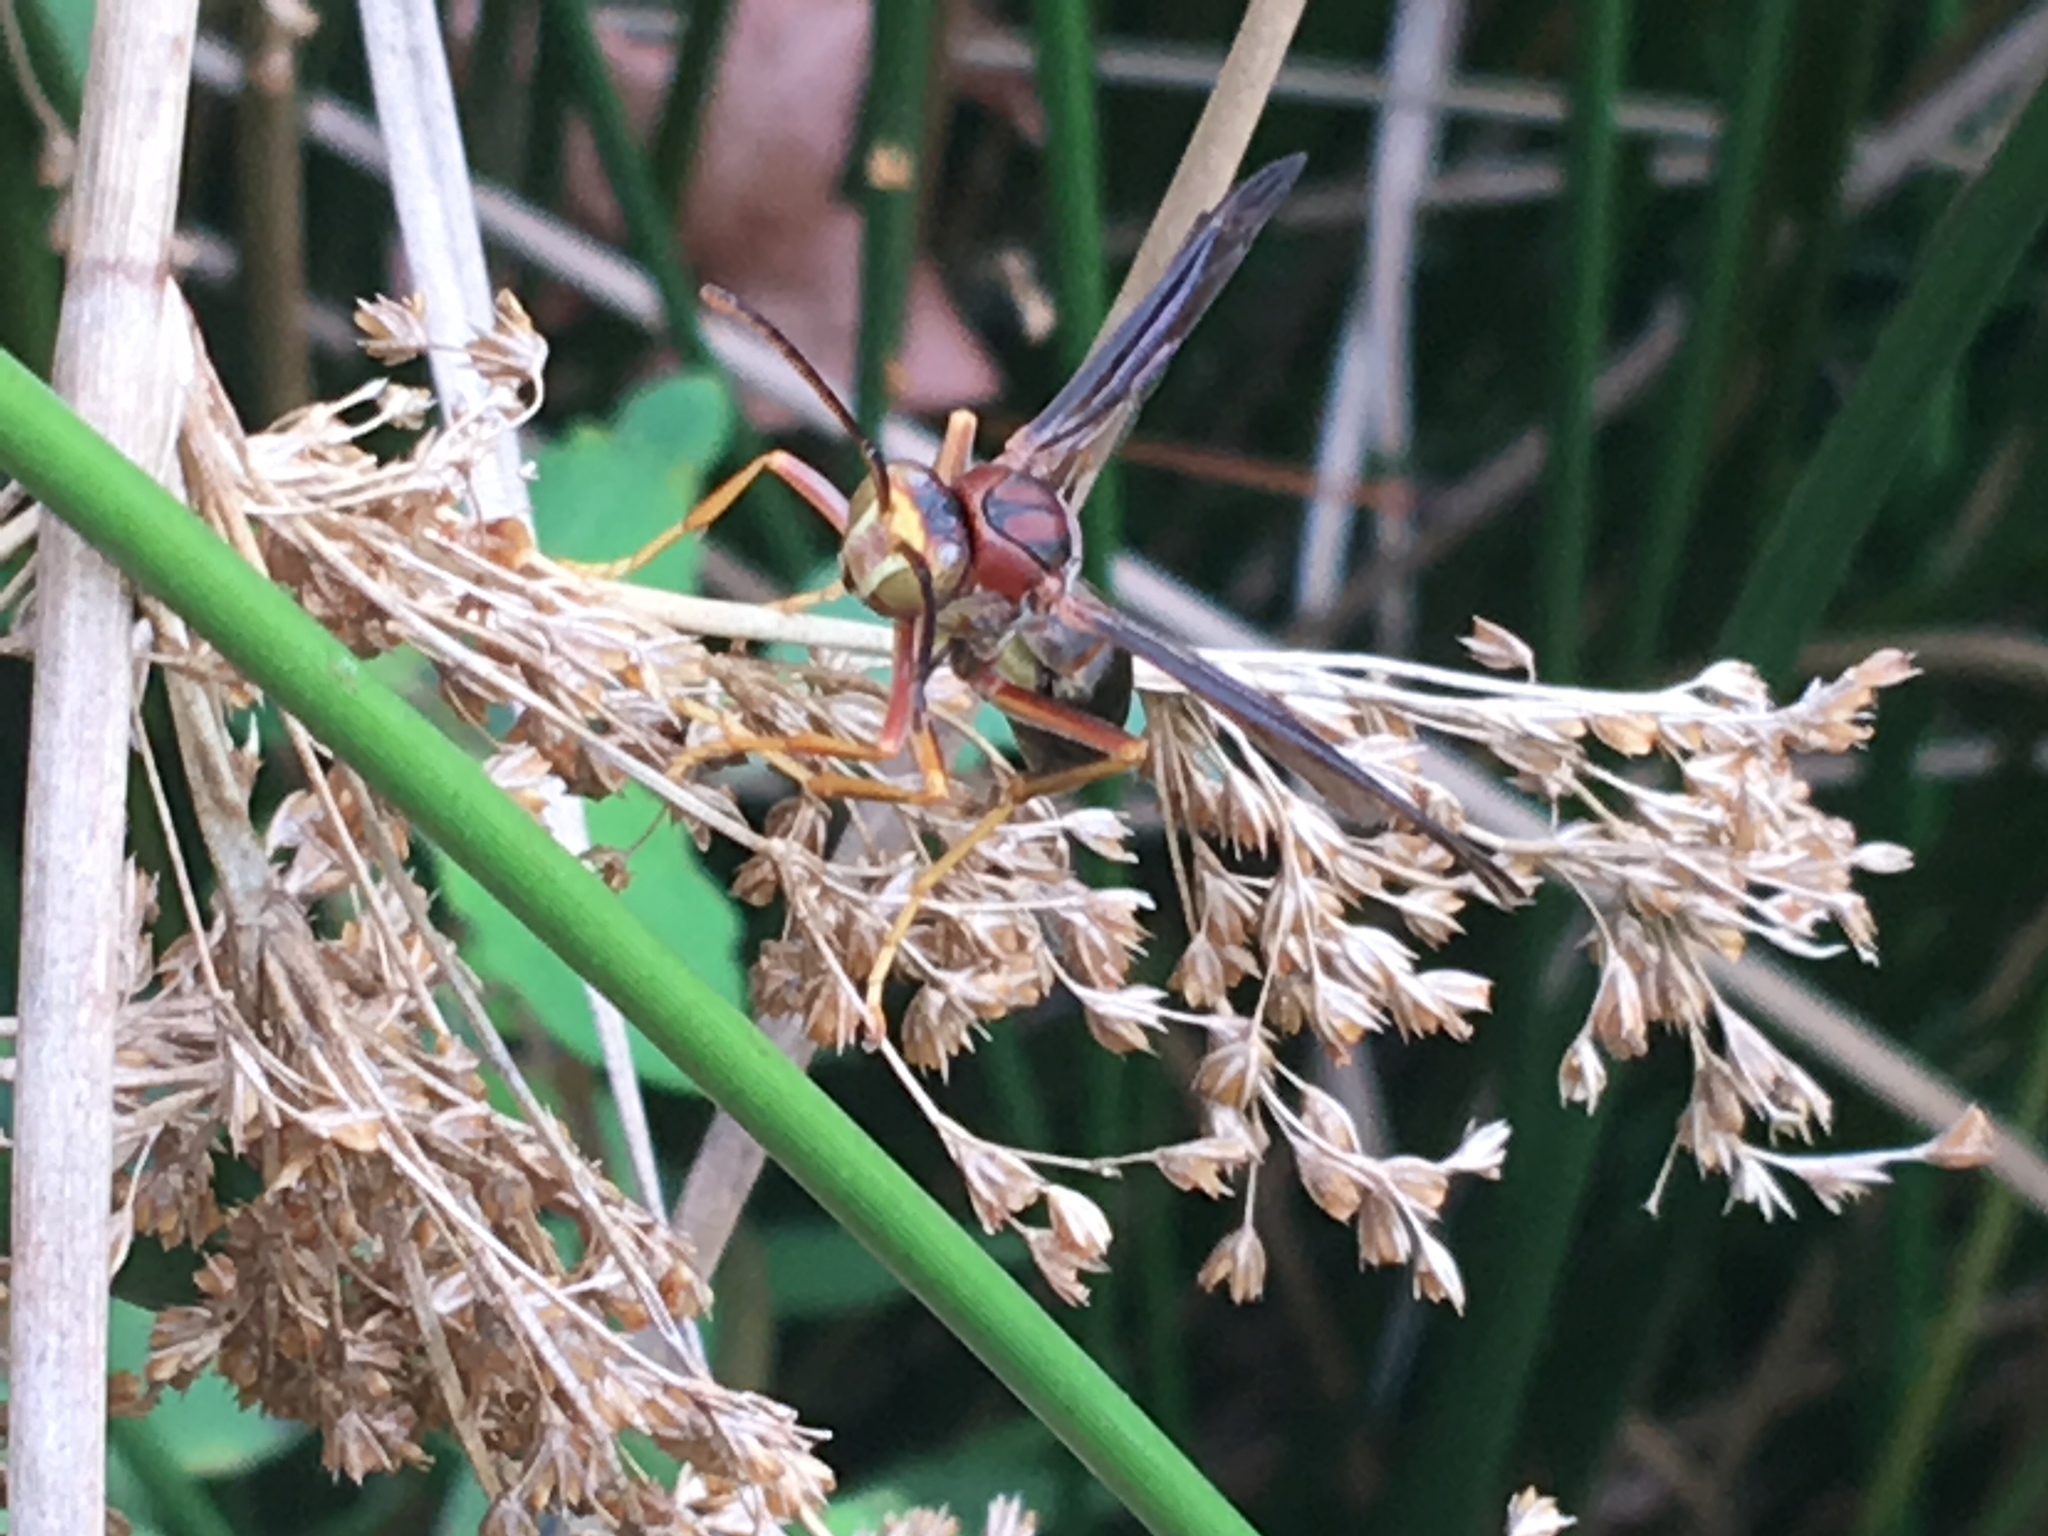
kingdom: Animalia
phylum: Arthropoda
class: Insecta
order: Hymenoptera
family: Eumenidae
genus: Polistes
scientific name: Polistes metricus
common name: Metric paper wasp
